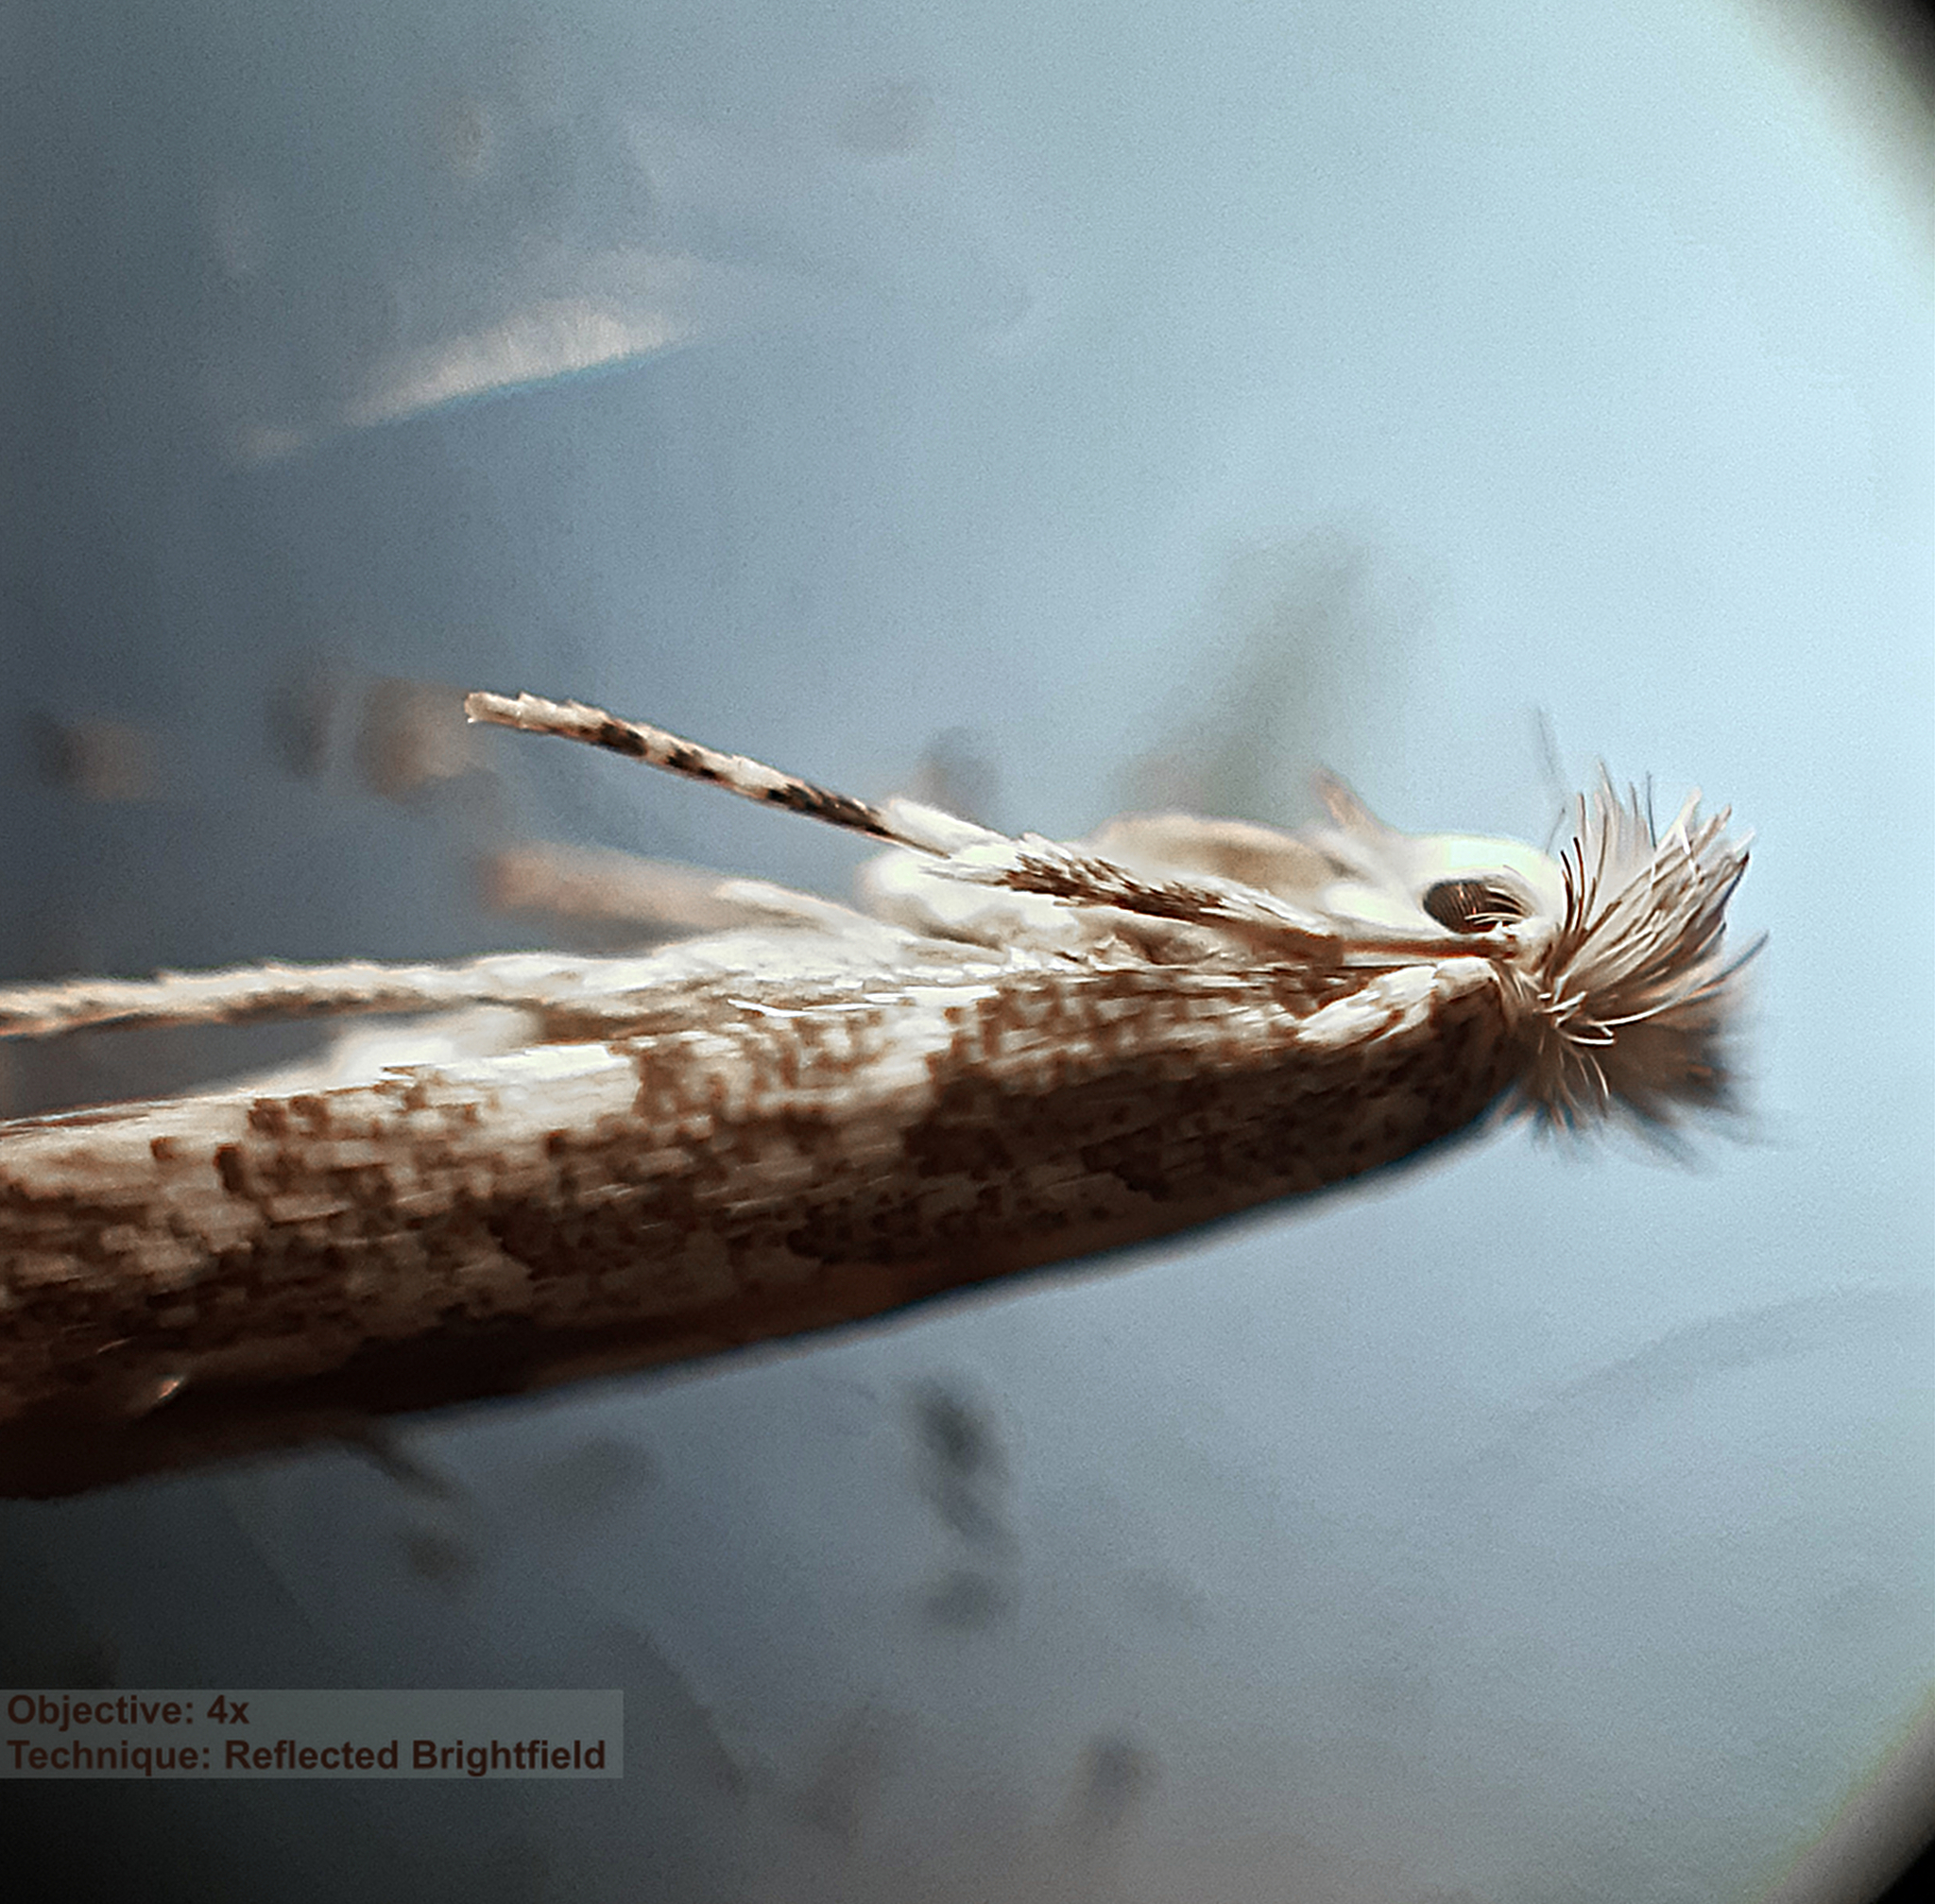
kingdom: Animalia
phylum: Arthropoda
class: Insecta
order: Lepidoptera
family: Gracillariidae
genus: Phyllonorycter
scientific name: Phyllonorycter populifoliella
